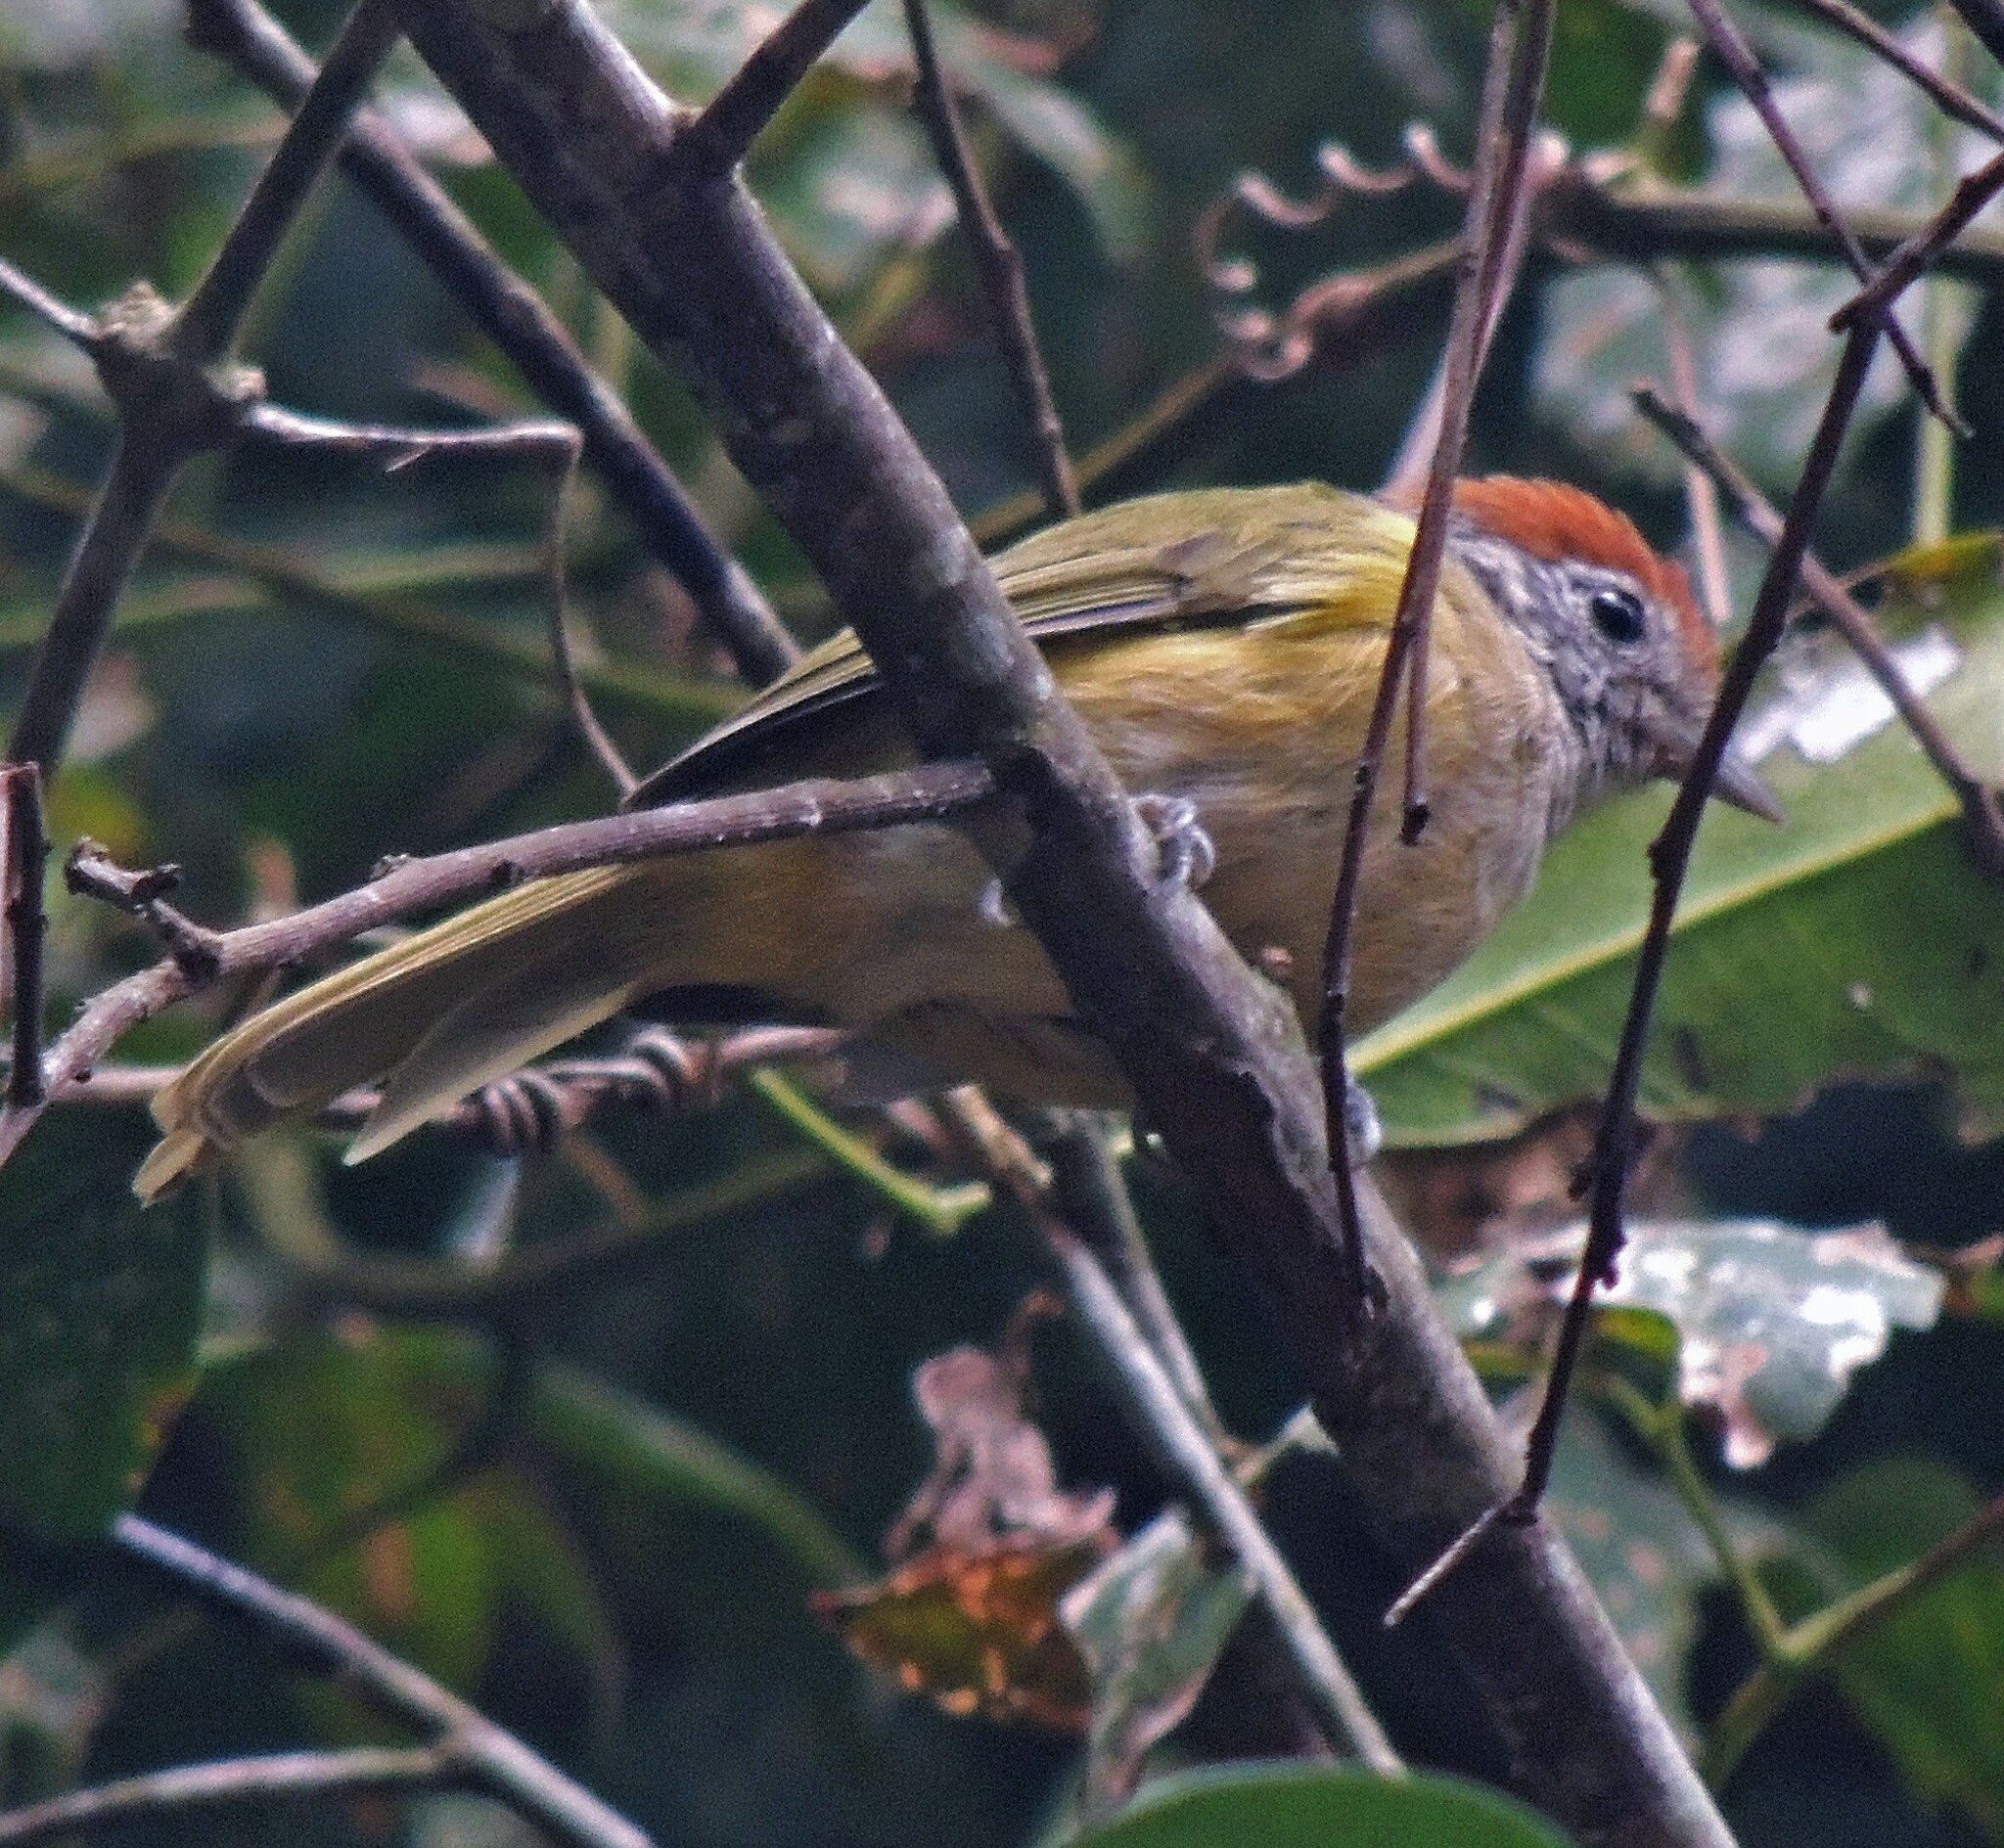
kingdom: Animalia
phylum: Chordata
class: Aves
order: Passeriformes
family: Vireonidae
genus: Hylophilus
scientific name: Hylophilus poicilotis
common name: Rufous-crowned greenlet
